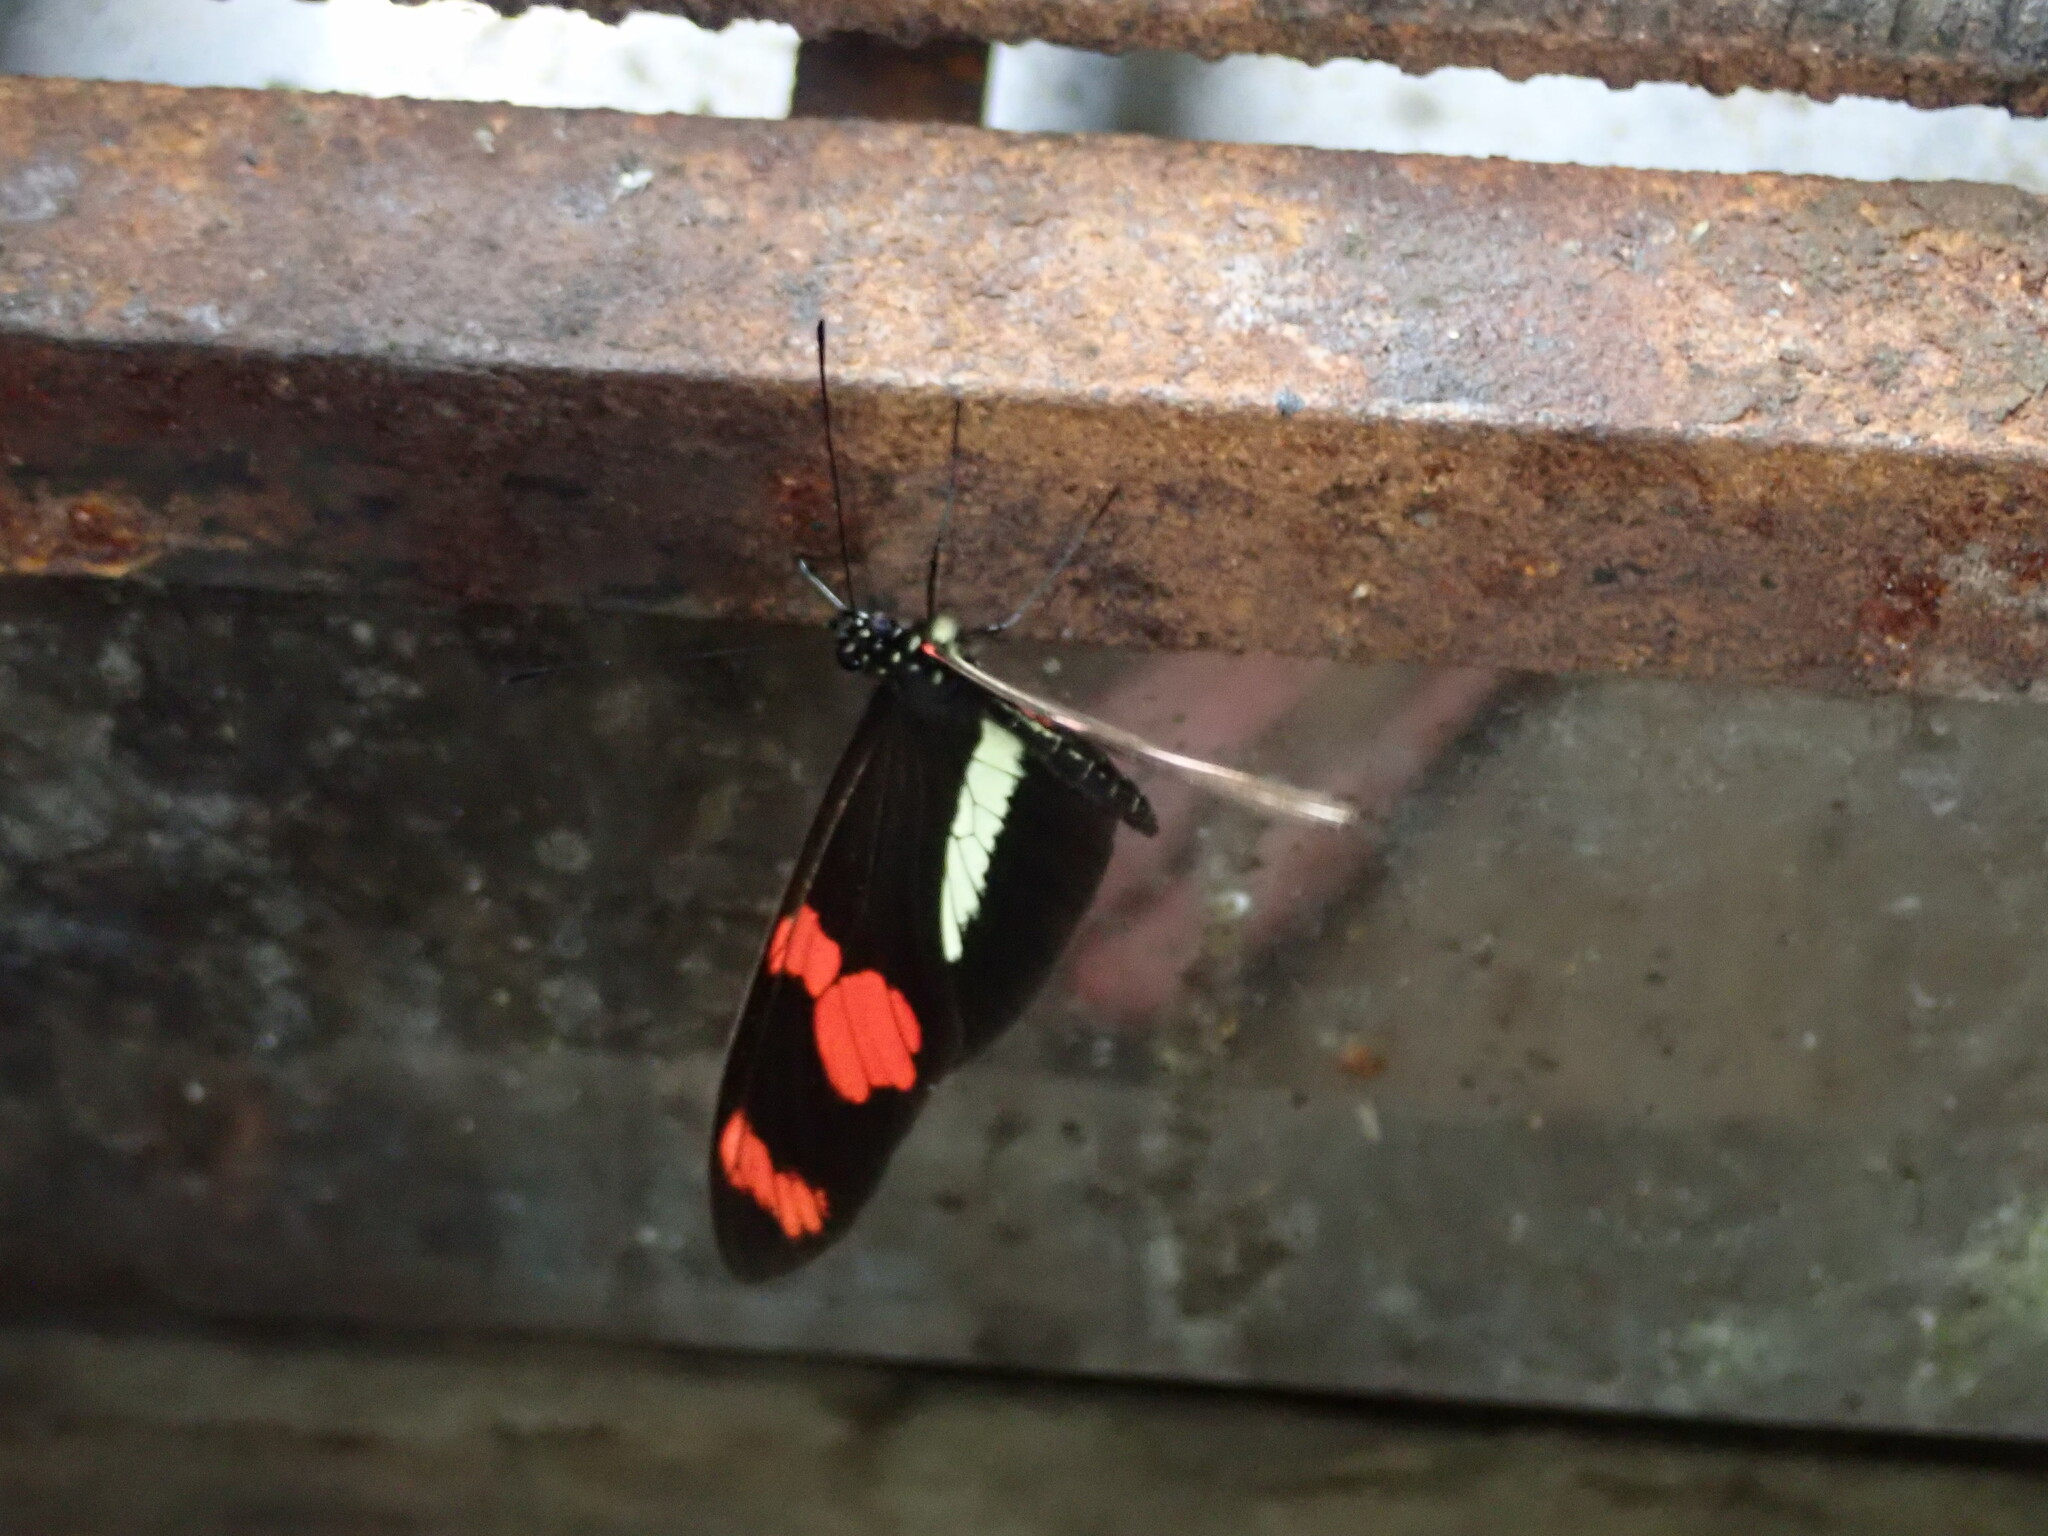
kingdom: Animalia
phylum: Arthropoda
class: Insecta
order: Lepidoptera
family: Nymphalidae
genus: Heliconius
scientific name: Heliconius telesiphe
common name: Telesiphe longwing
